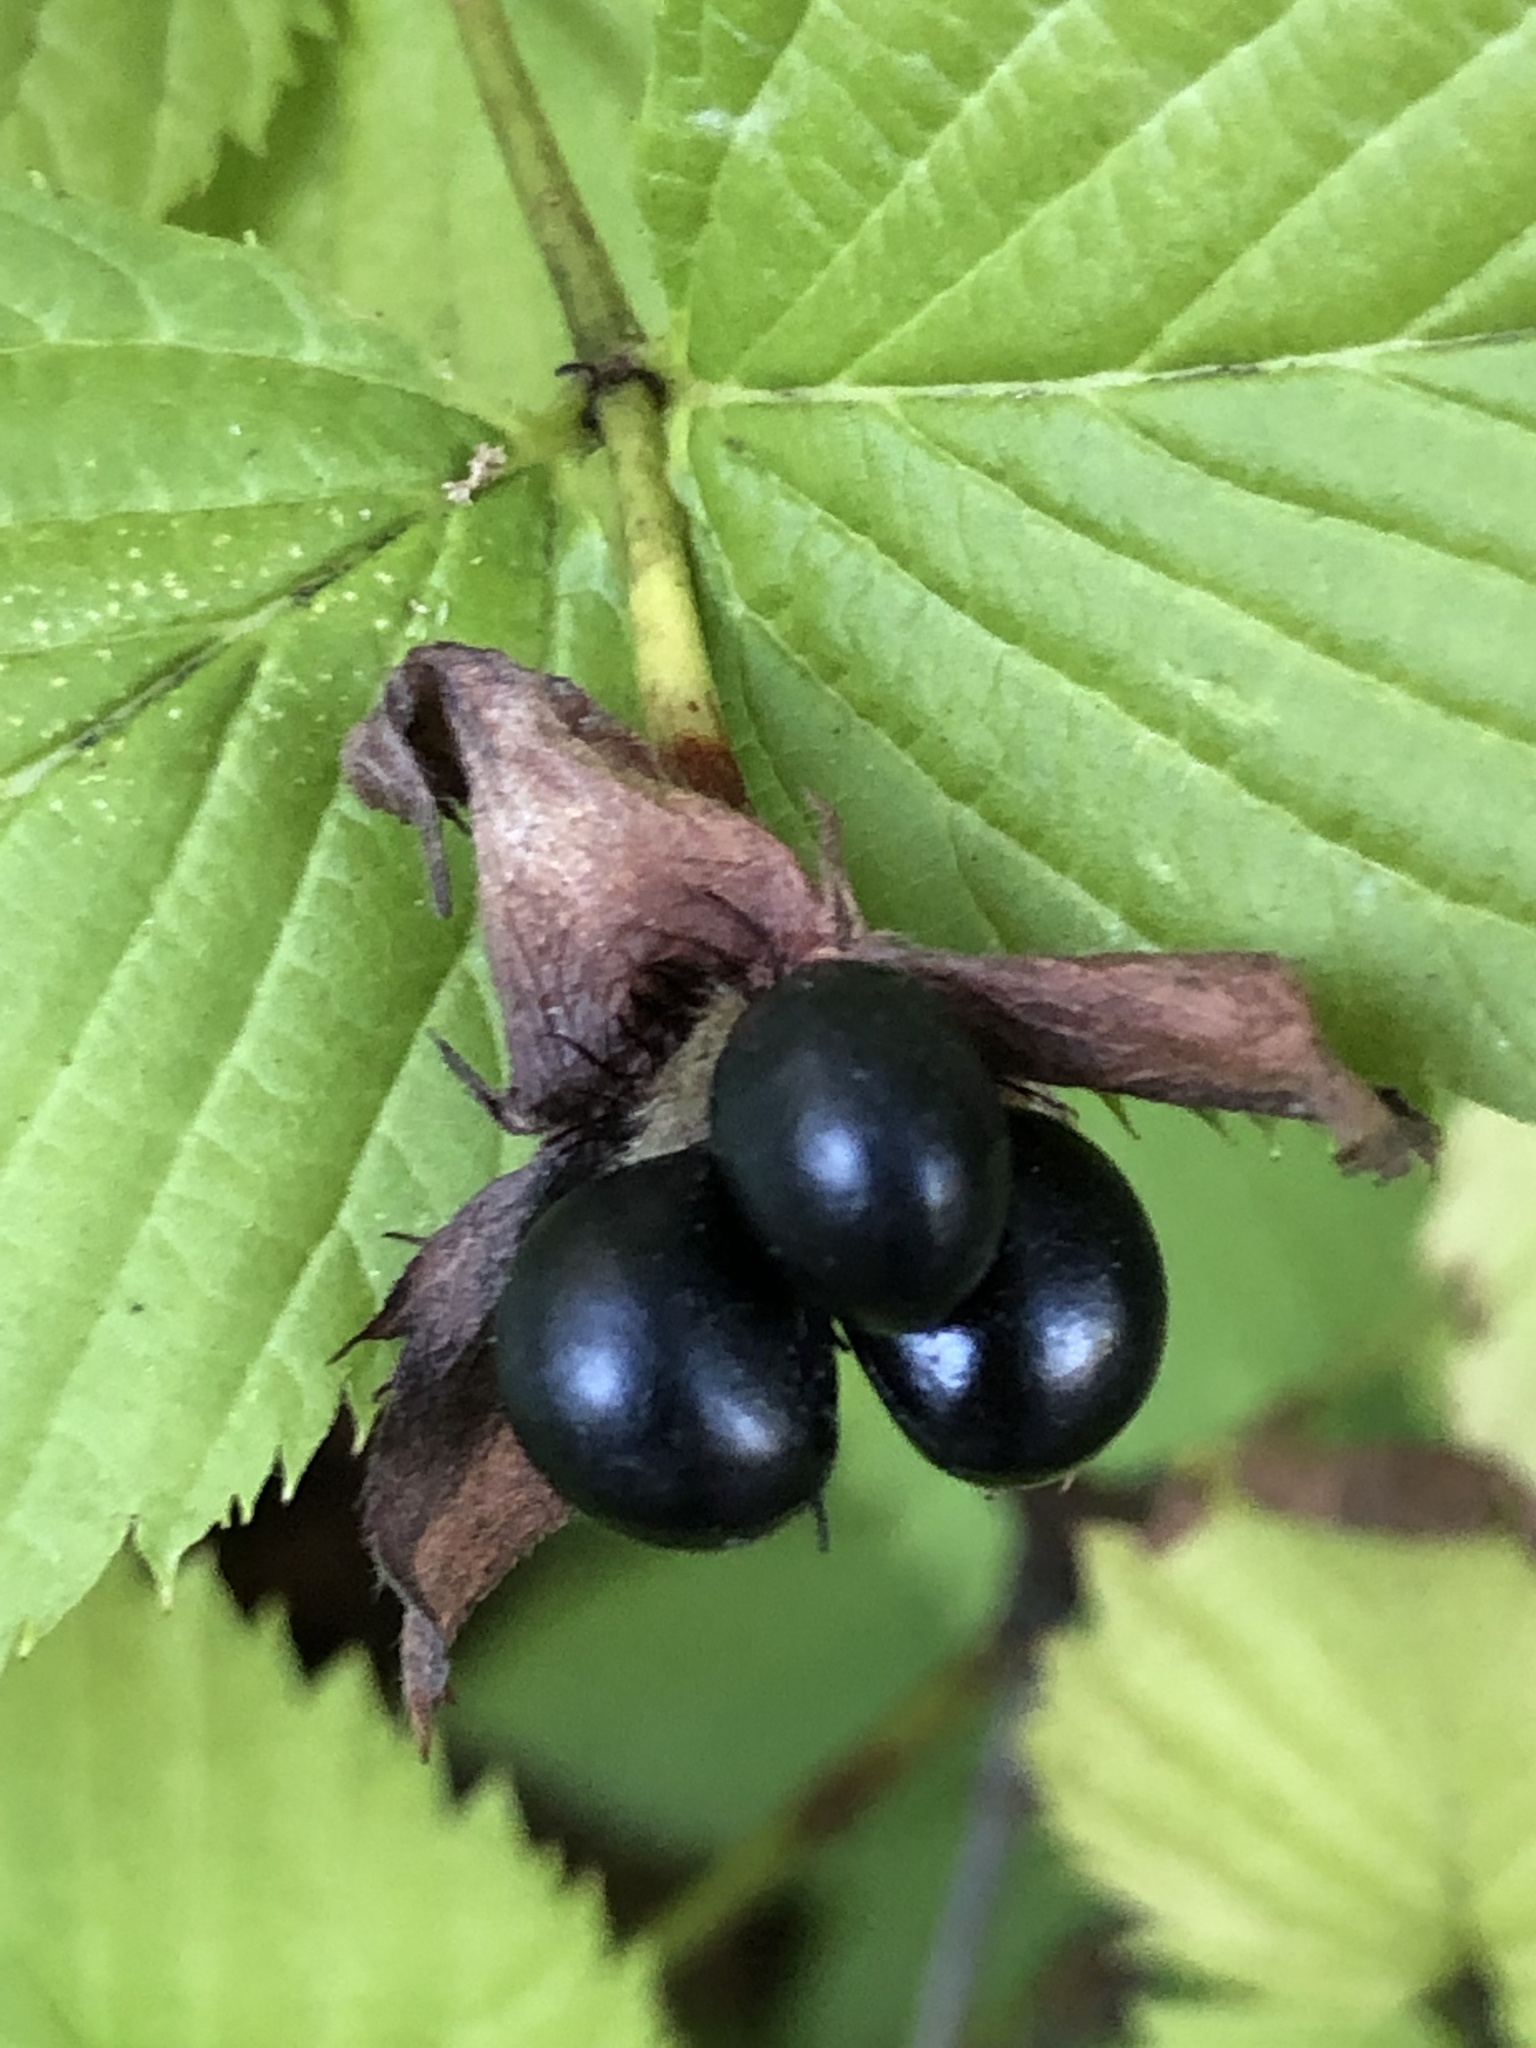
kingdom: Plantae
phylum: Tracheophyta
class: Magnoliopsida
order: Rosales
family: Rosaceae
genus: Rhodotypos
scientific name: Rhodotypos scandens
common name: Jetbead
